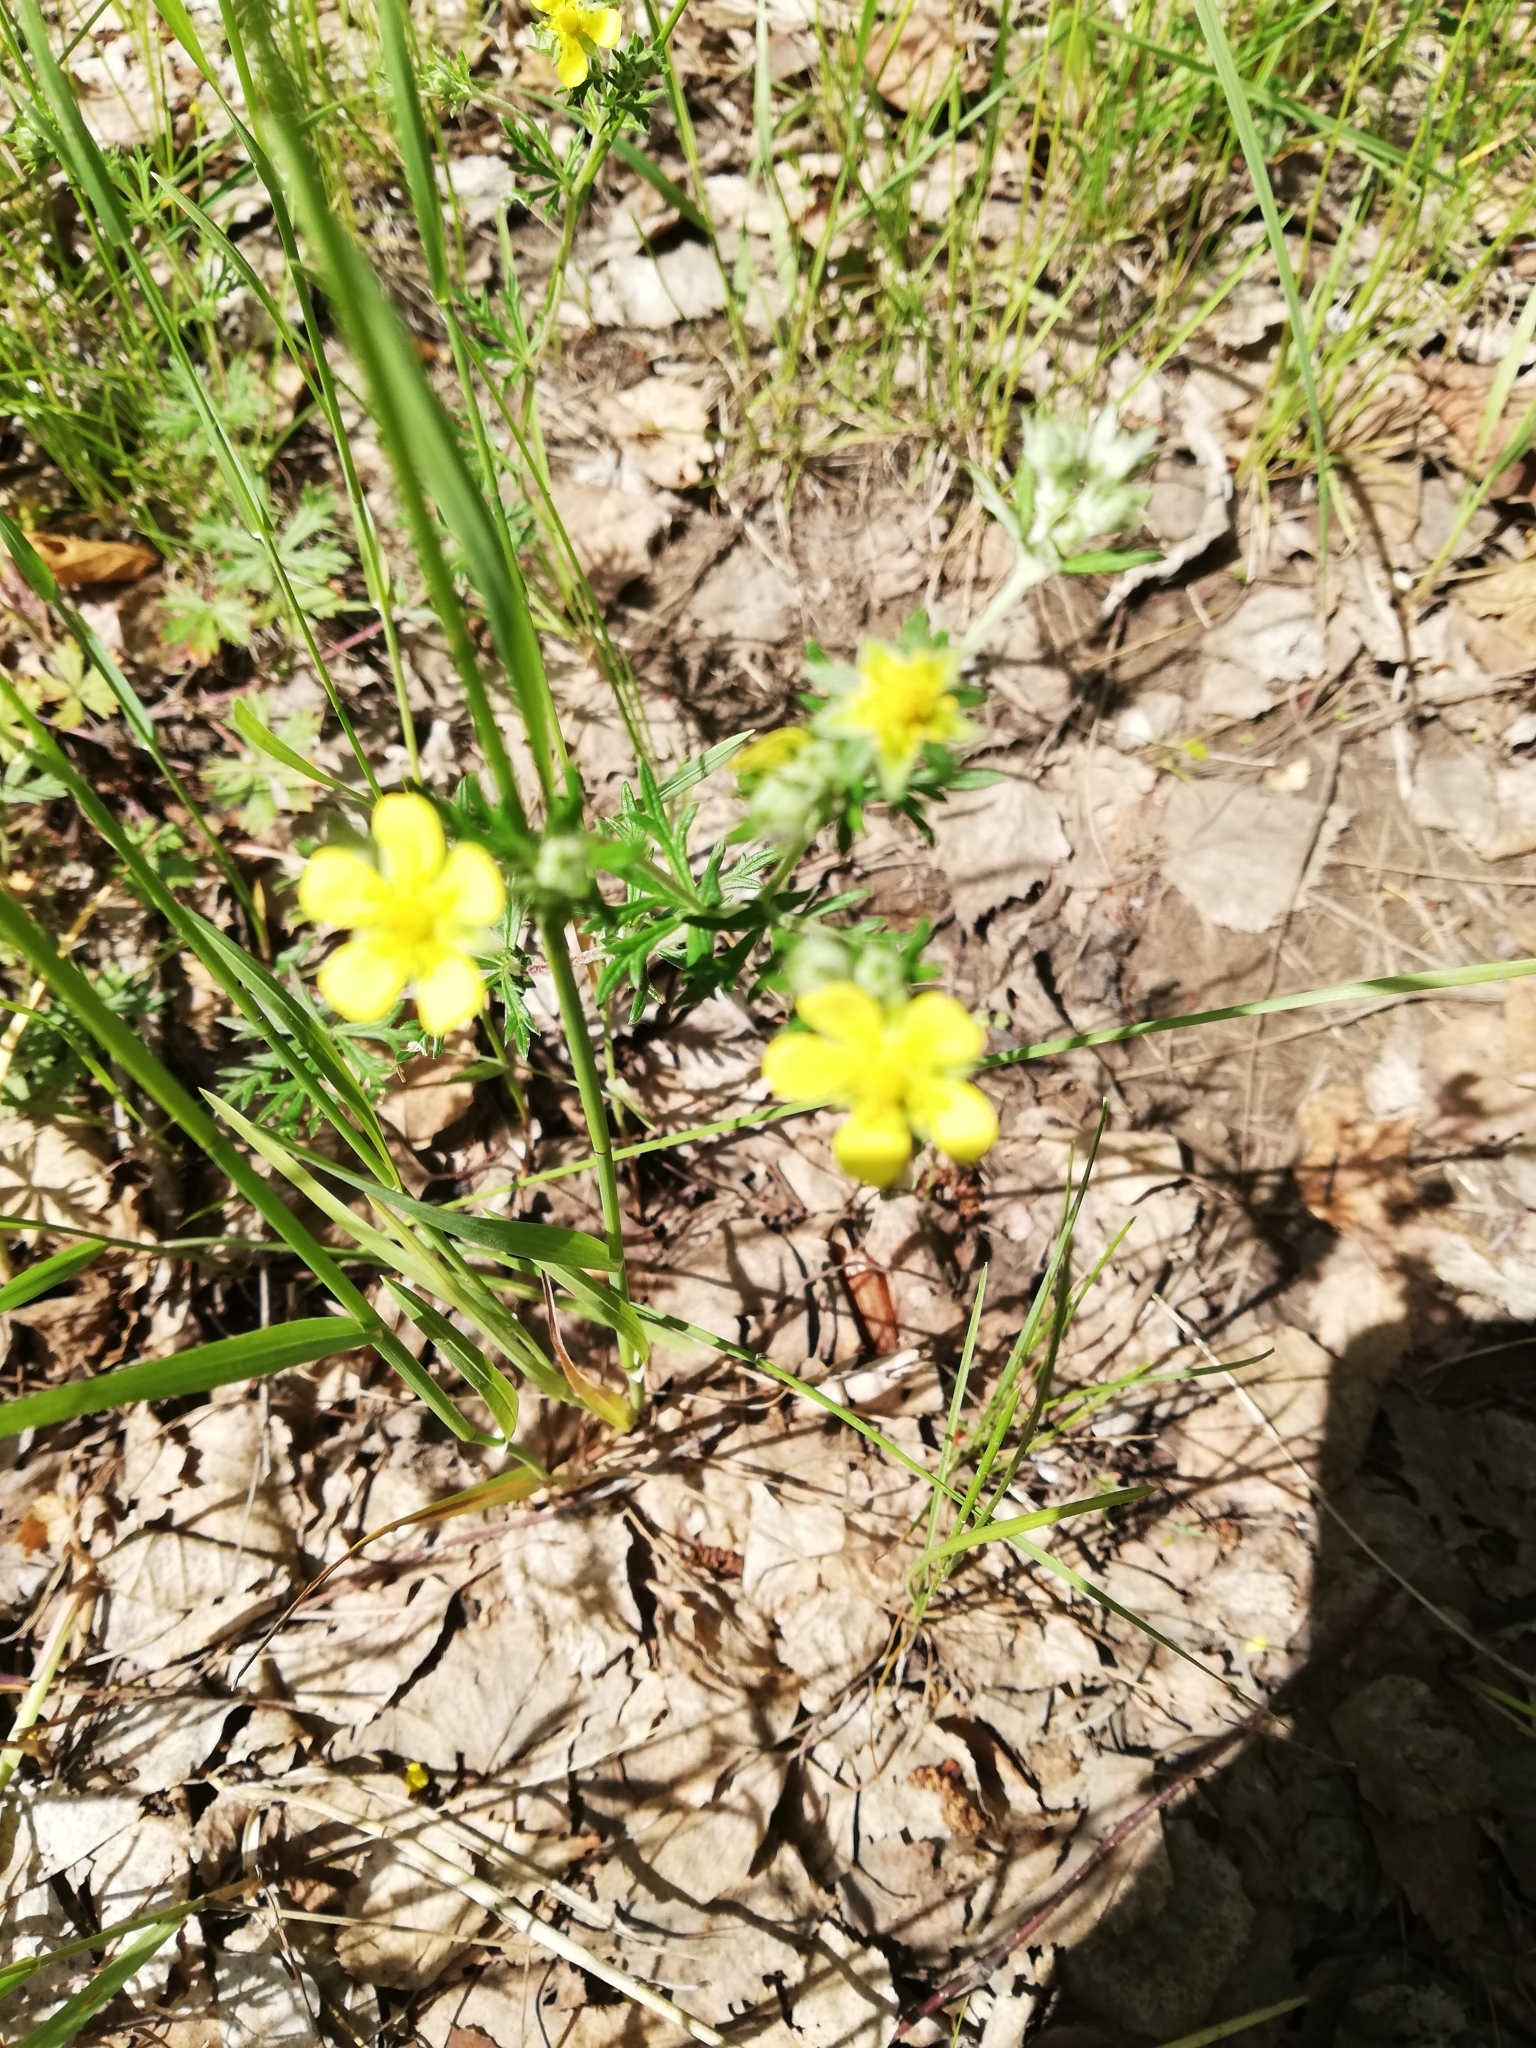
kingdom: Plantae
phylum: Tracheophyta
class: Magnoliopsida
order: Rosales
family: Rosaceae
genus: Potentilla
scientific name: Potentilla argentea
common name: Hoary cinquefoil
